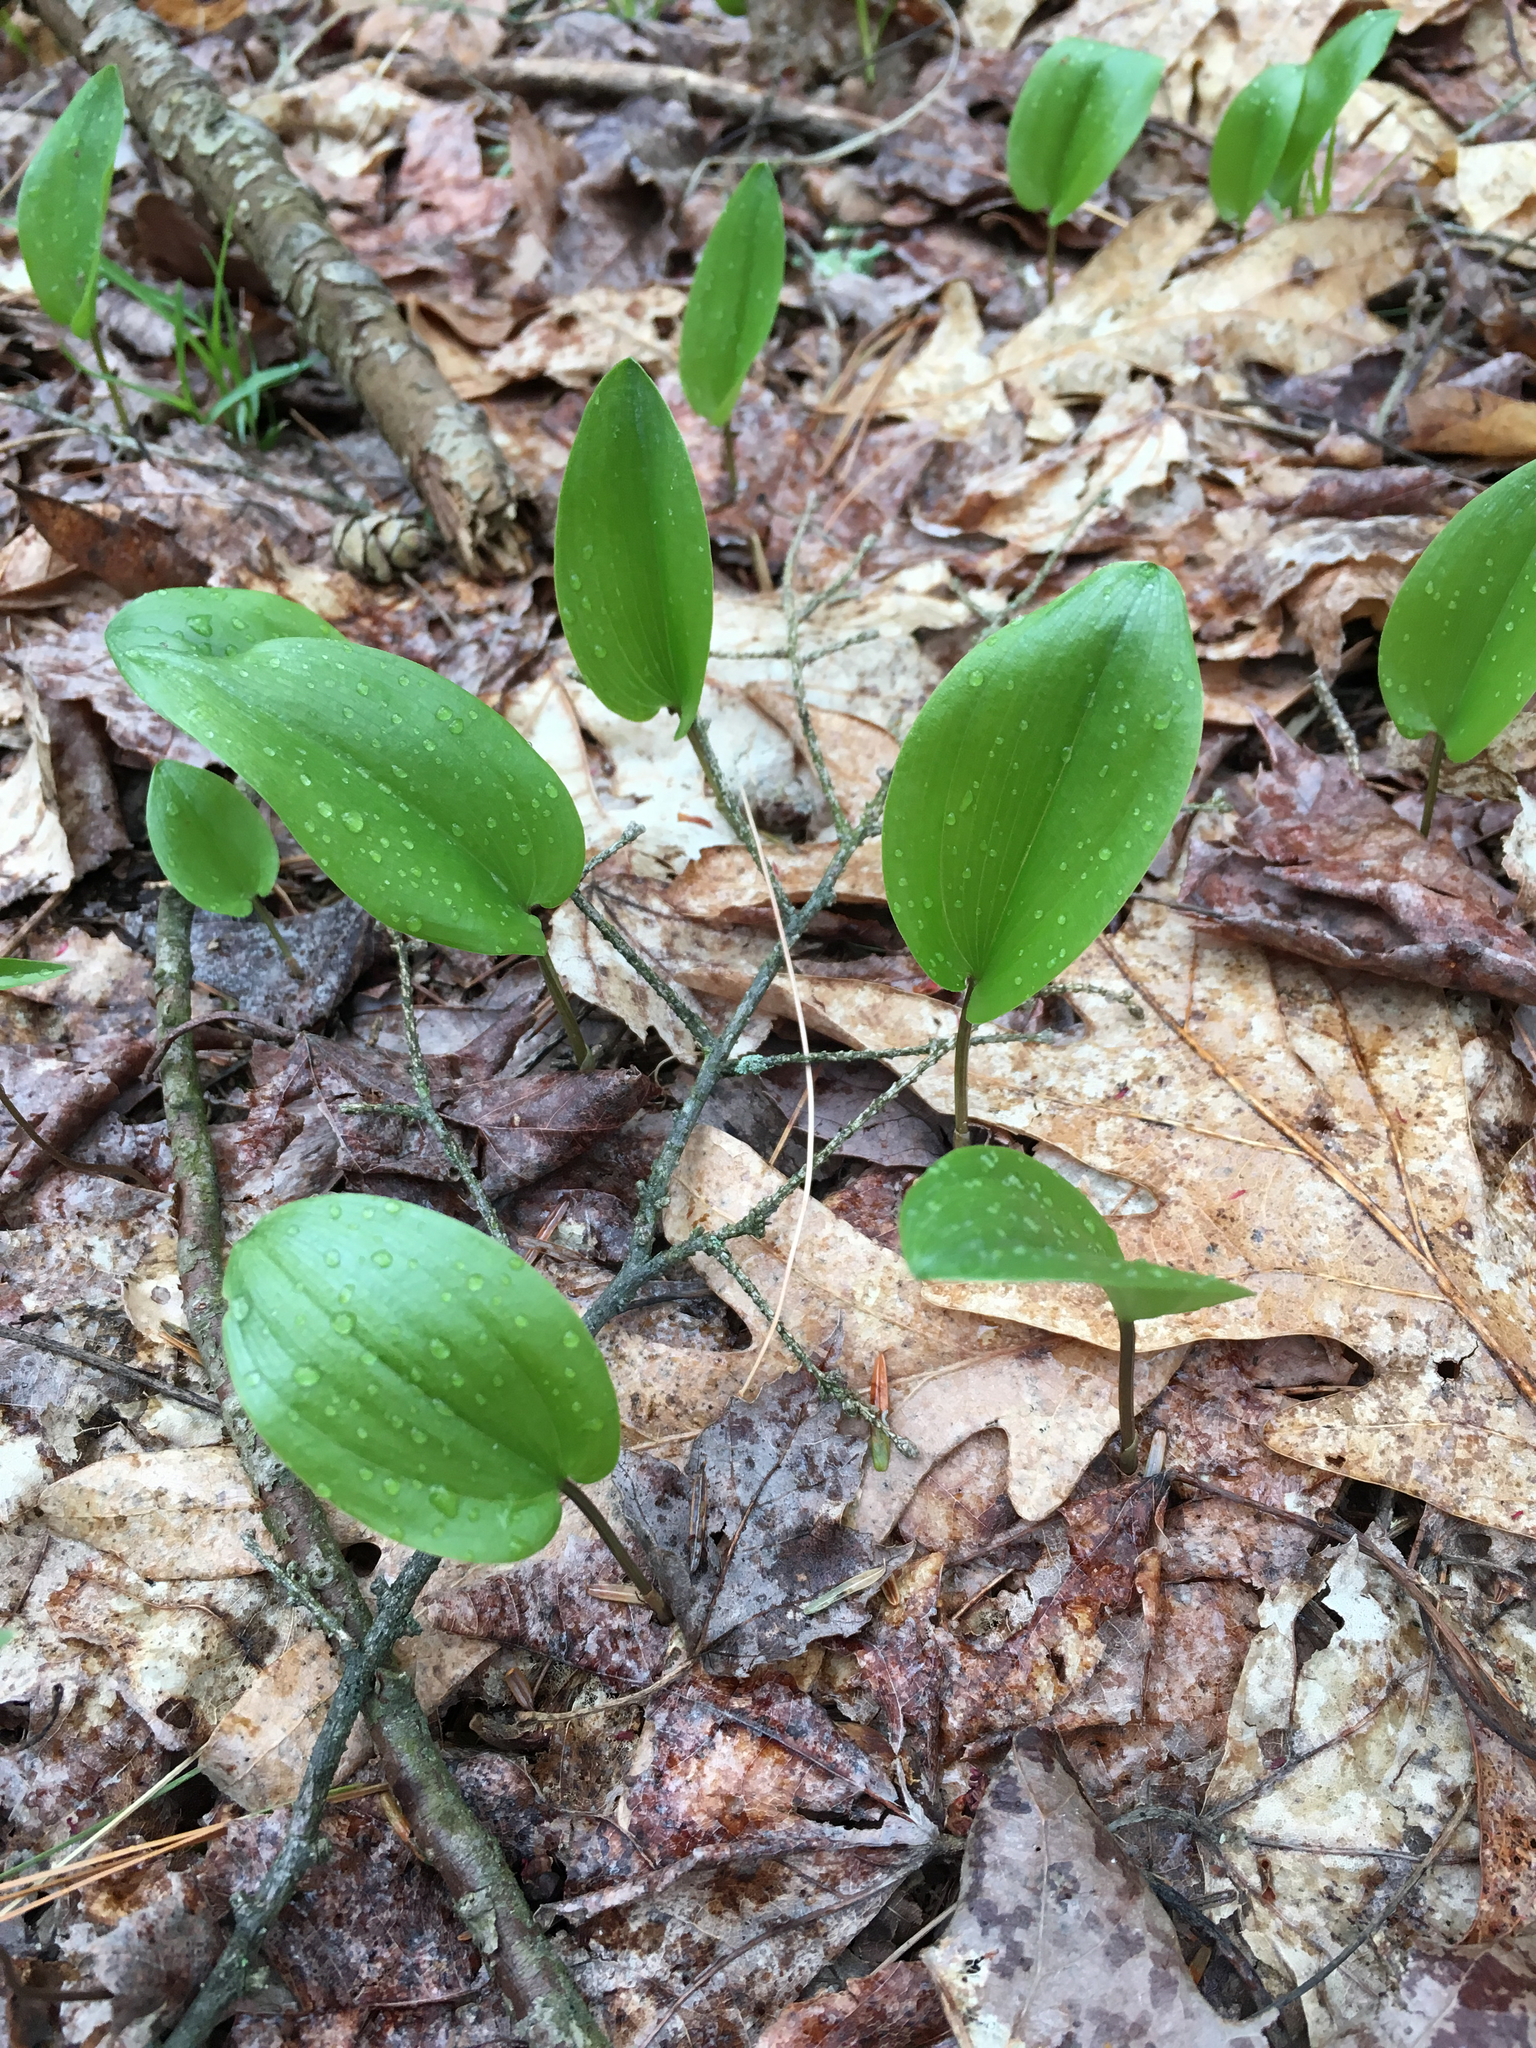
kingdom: Plantae
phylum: Tracheophyta
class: Liliopsida
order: Asparagales
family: Asparagaceae
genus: Maianthemum
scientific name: Maianthemum canadense
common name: False lily-of-the-valley
